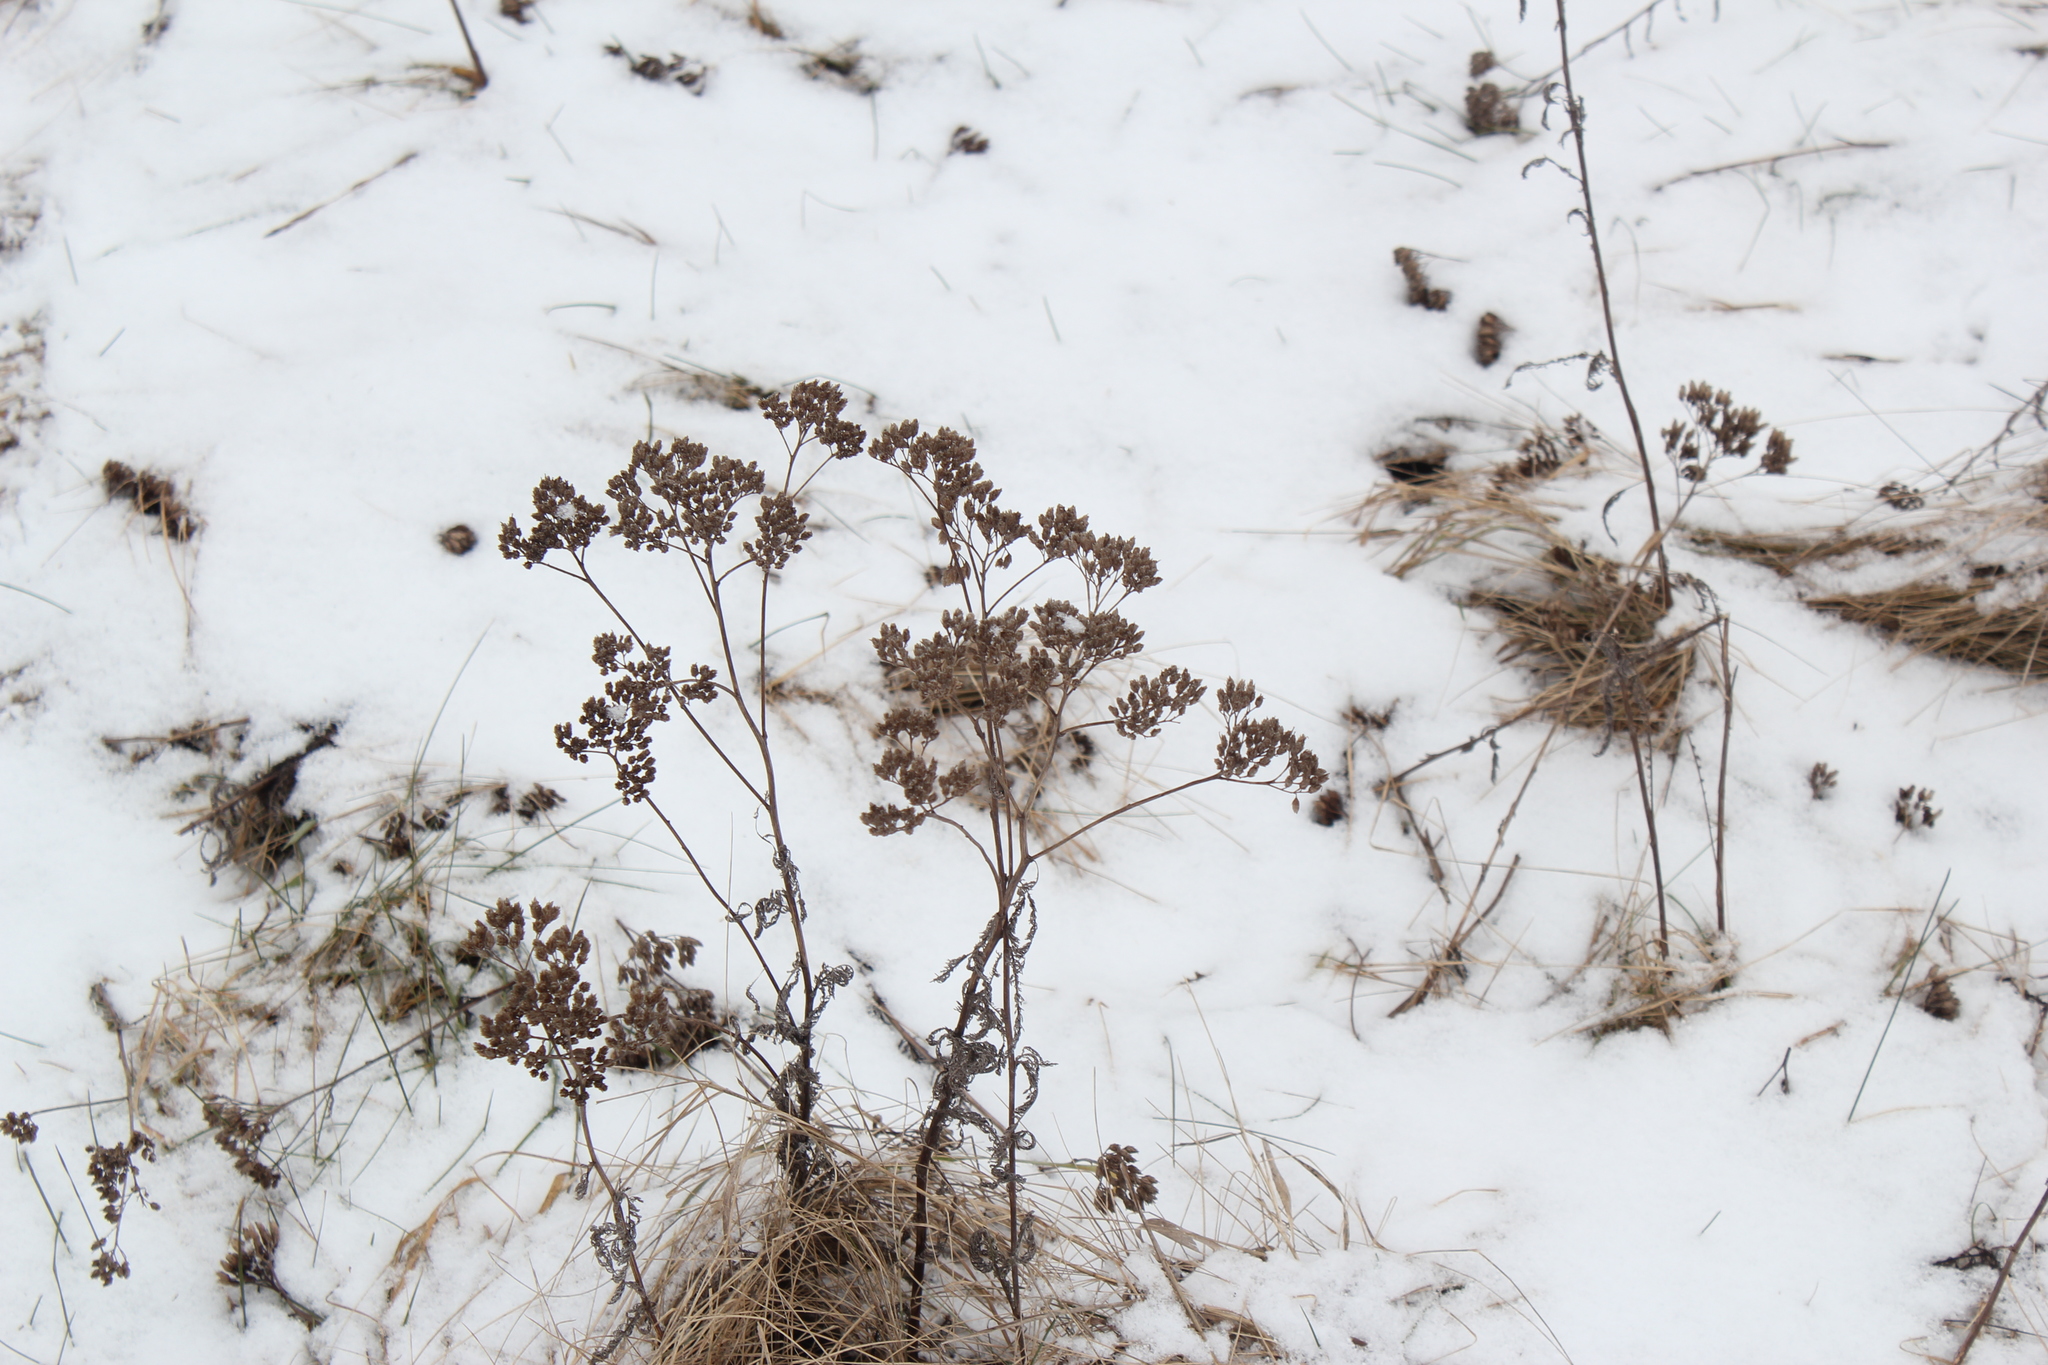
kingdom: Plantae
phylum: Tracheophyta
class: Magnoliopsida
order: Asterales
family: Asteraceae
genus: Achillea
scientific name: Achillea millefolium
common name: Yarrow
